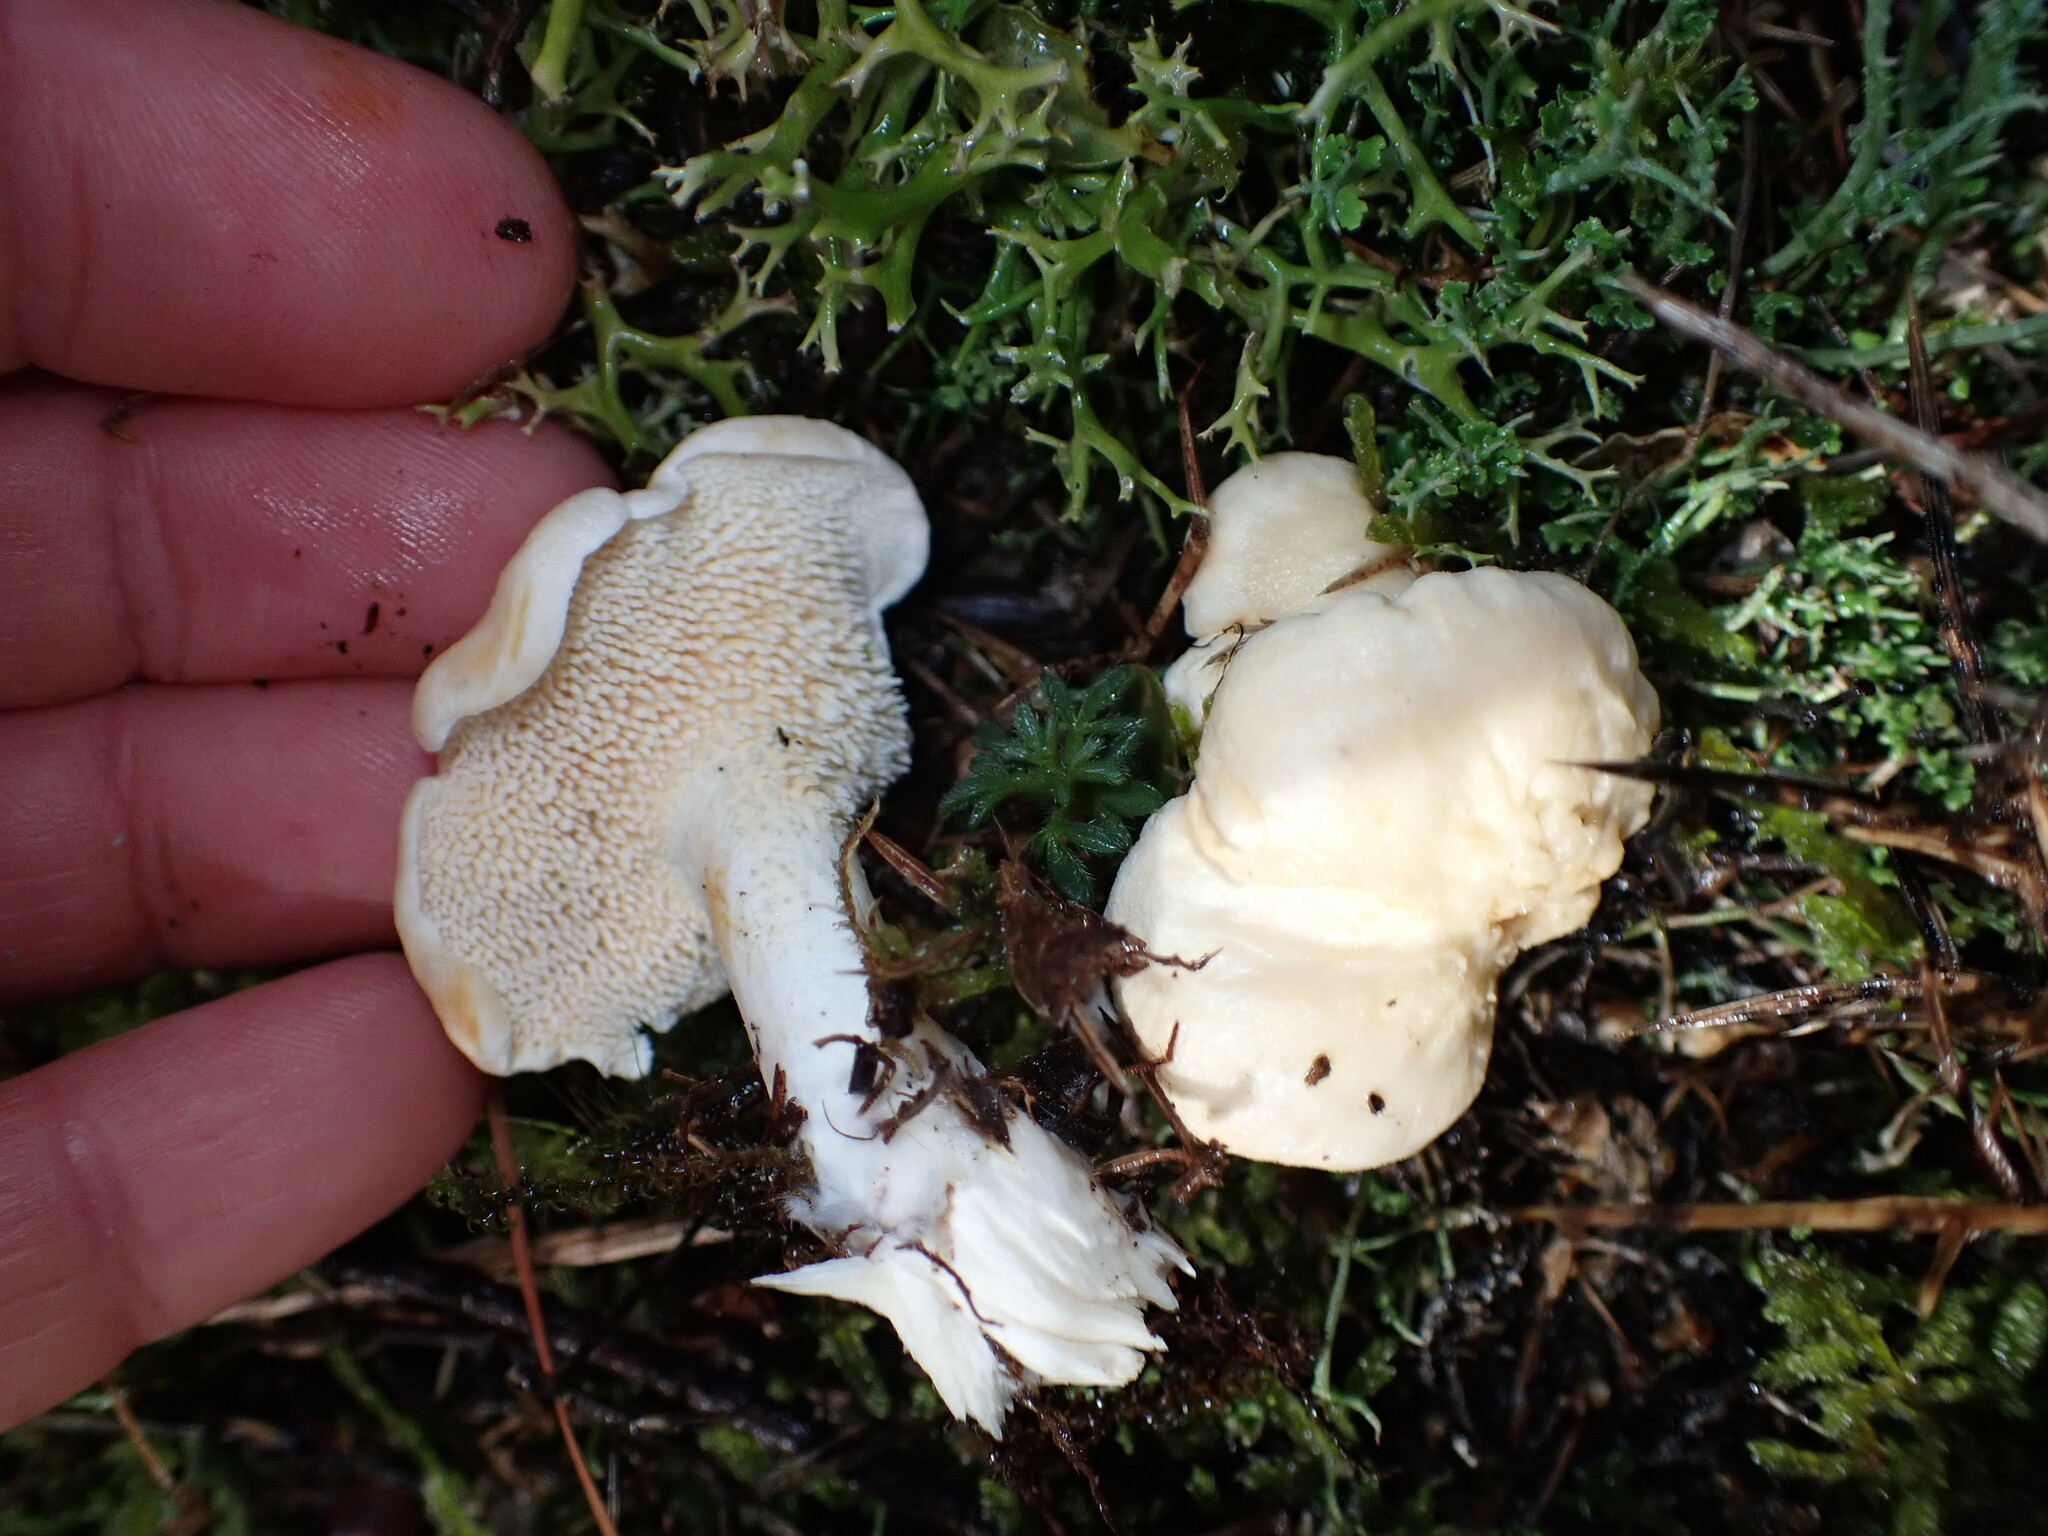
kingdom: Fungi
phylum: Basidiomycota
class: Agaricomycetes
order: Cantharellales
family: Hydnaceae
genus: Hydnum
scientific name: Hydnum ambustum
